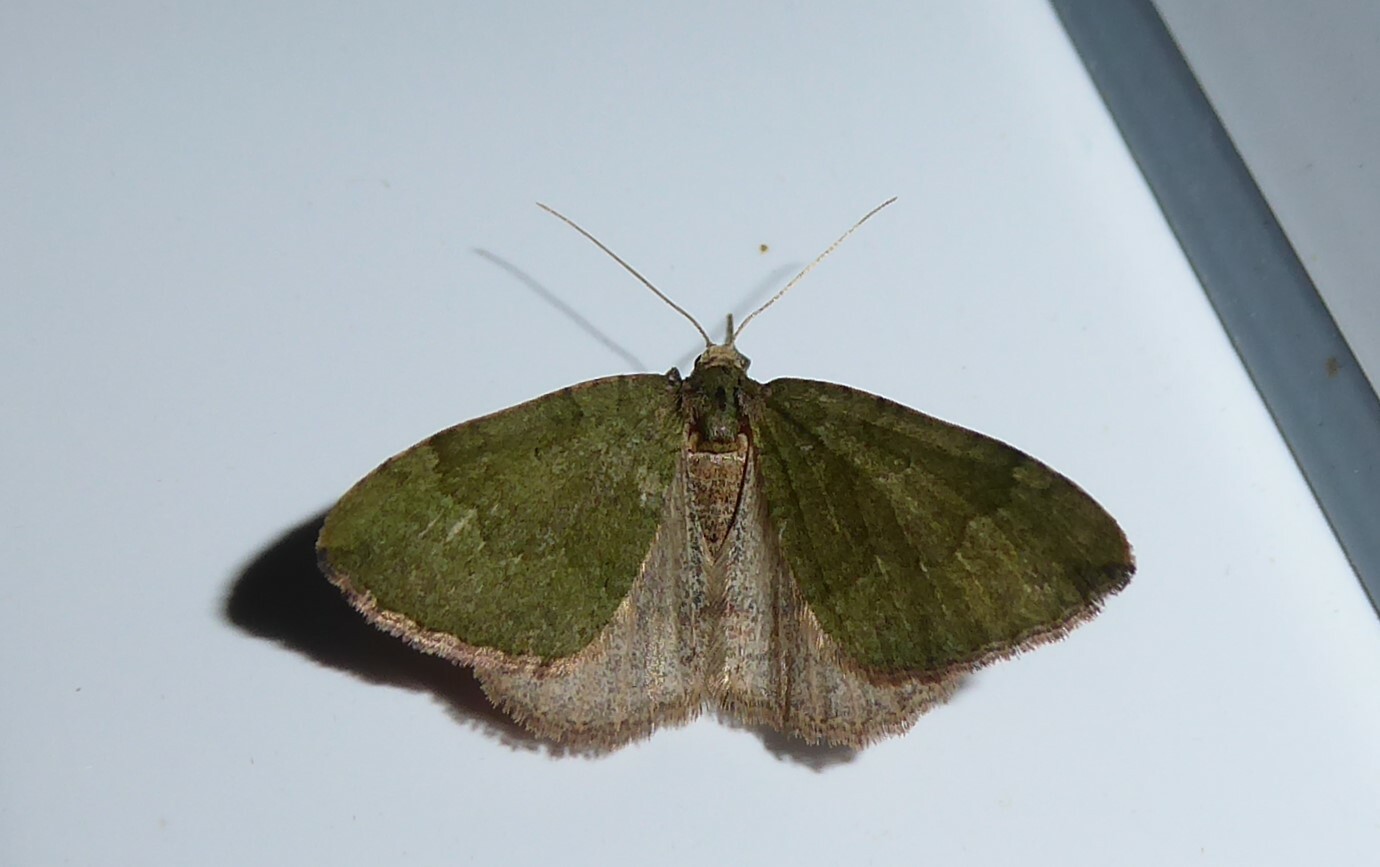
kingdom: Animalia
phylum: Arthropoda
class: Insecta
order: Lepidoptera
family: Geometridae
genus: Epyaxa
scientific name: Epyaxa rosearia
